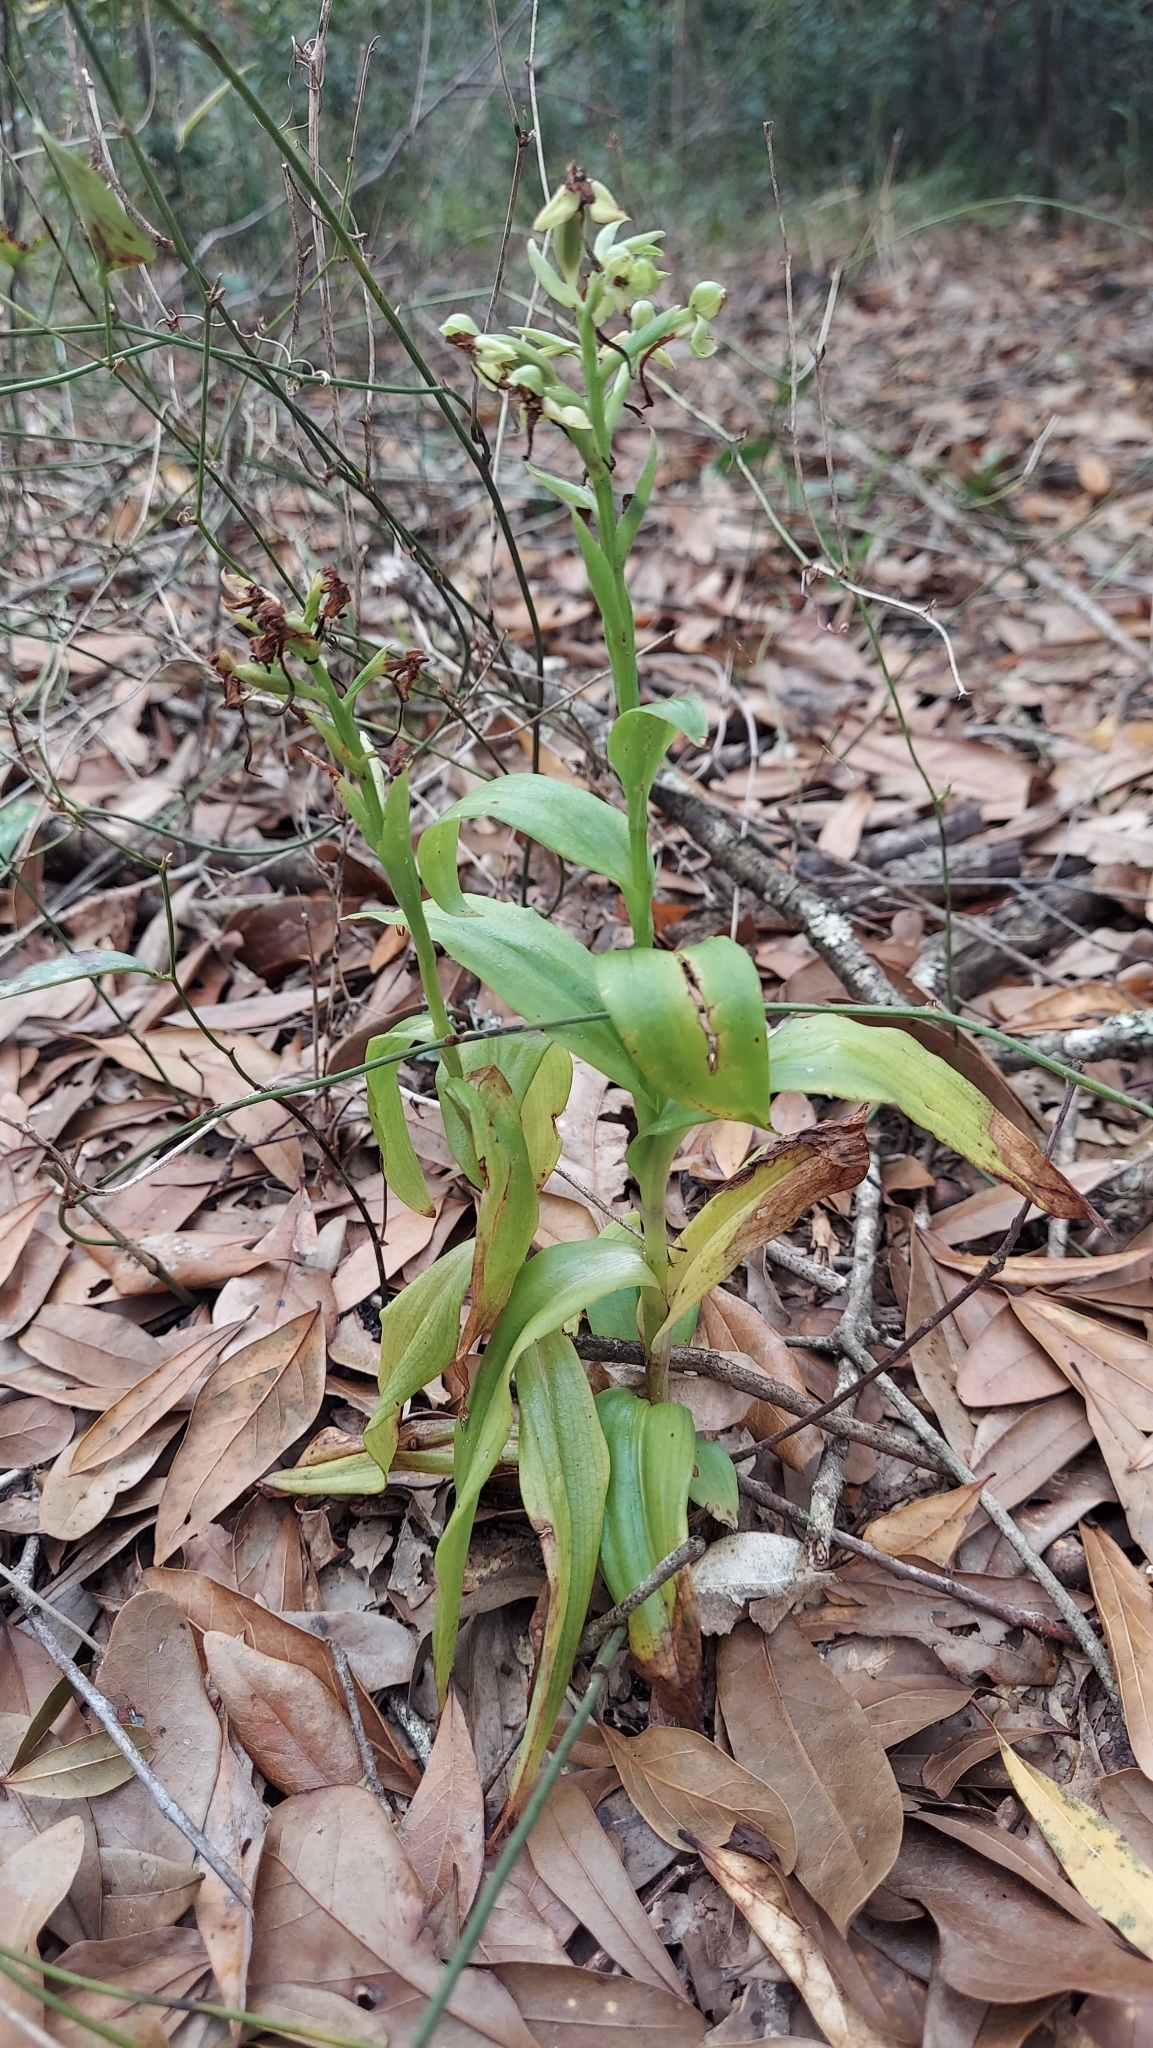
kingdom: Plantae
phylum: Tracheophyta
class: Liliopsida
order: Asparagales
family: Orchidaceae
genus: Habenaria
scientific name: Habenaria floribunda
